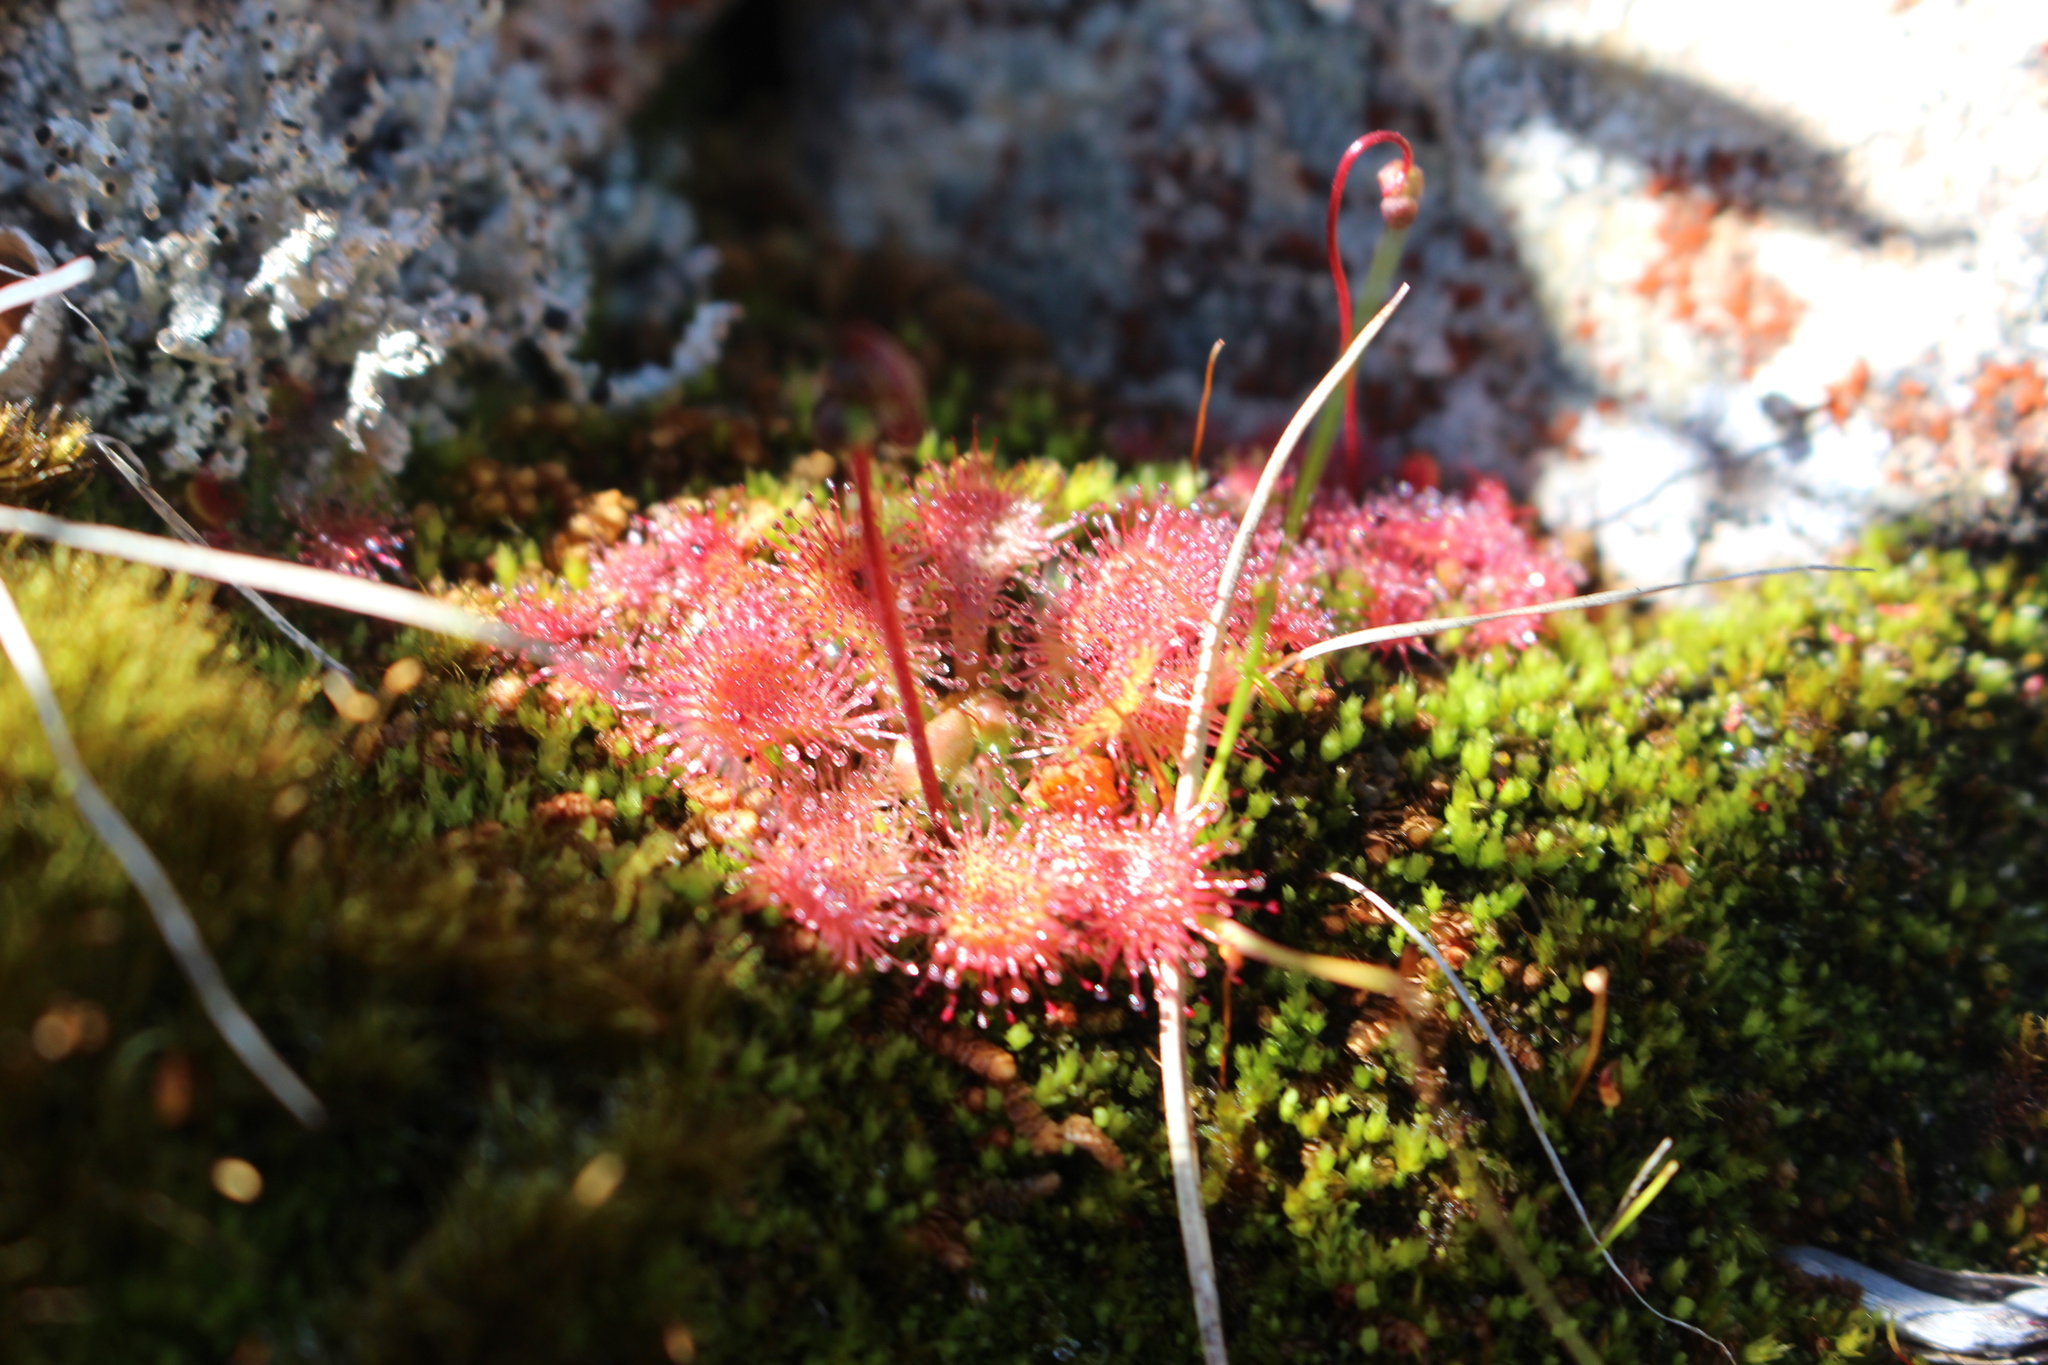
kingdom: Plantae
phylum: Tracheophyta
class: Magnoliopsida
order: Caryophyllales
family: Droseraceae
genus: Drosera
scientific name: Drosera spatulata
